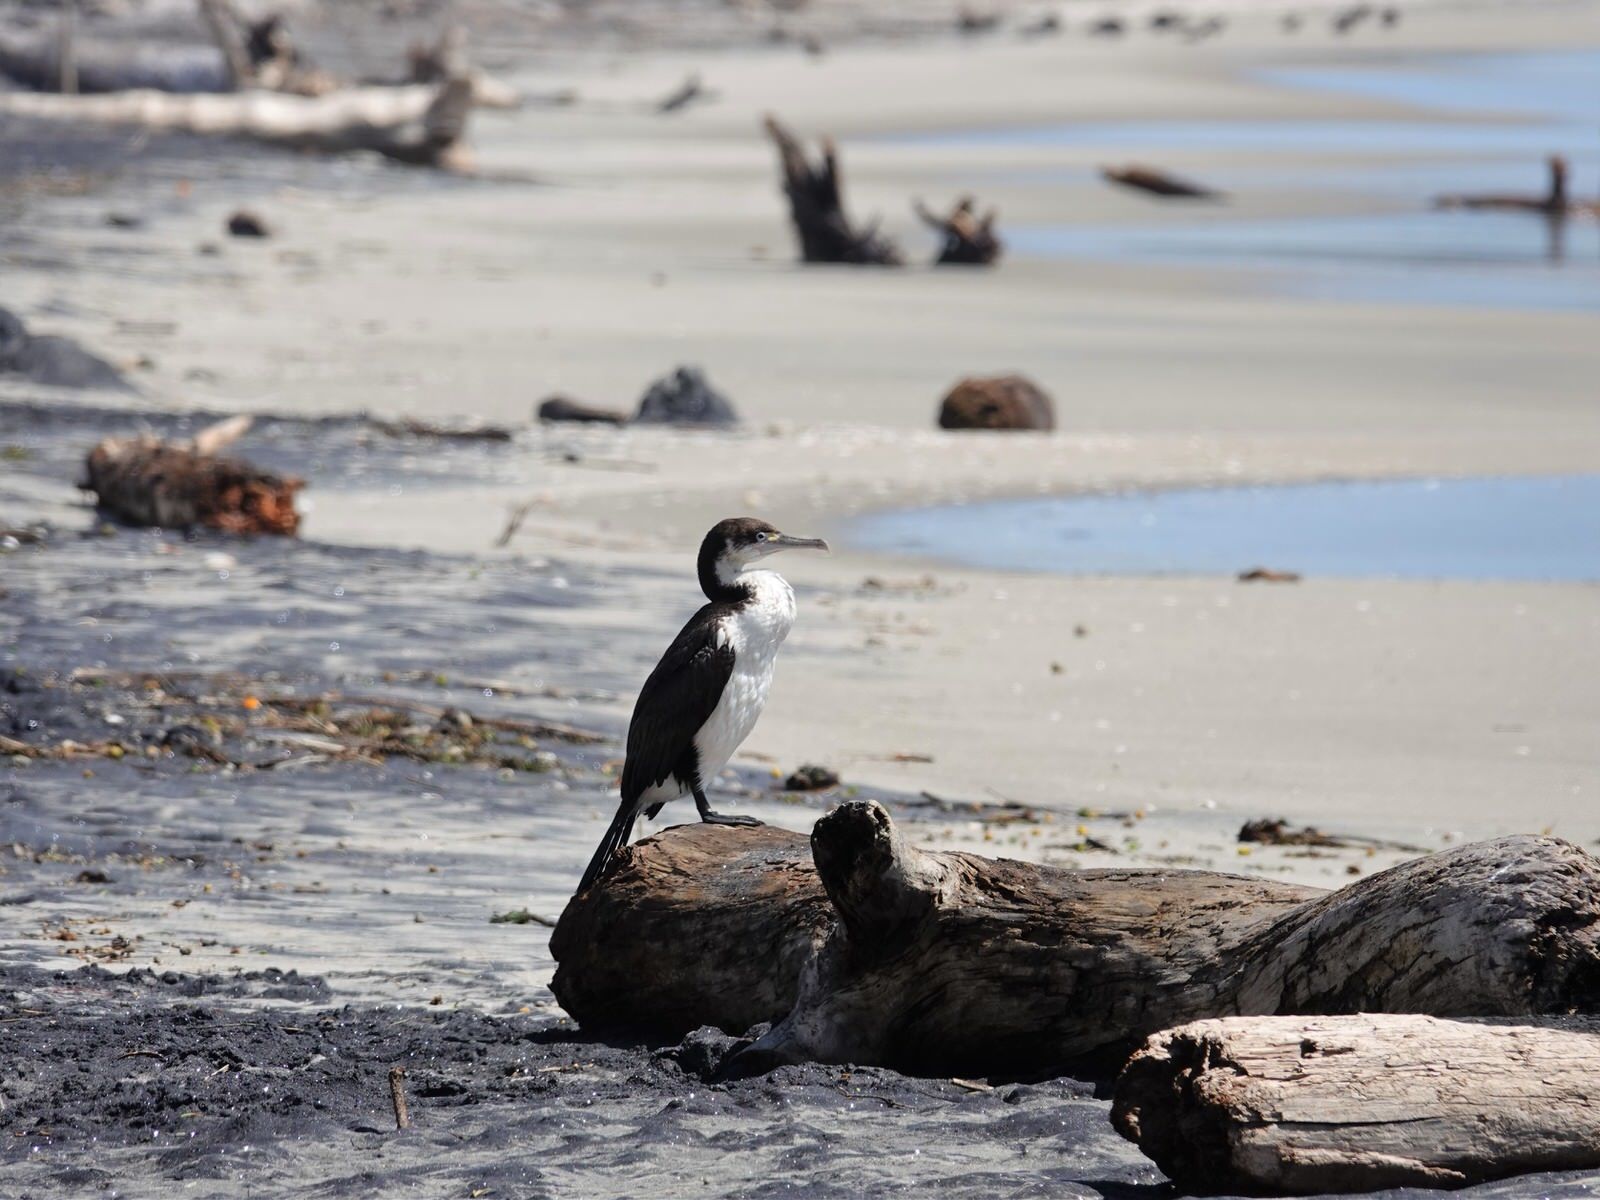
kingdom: Animalia
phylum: Chordata
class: Aves
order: Suliformes
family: Phalacrocoracidae
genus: Phalacrocorax
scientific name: Phalacrocorax varius
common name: Pied cormorant
